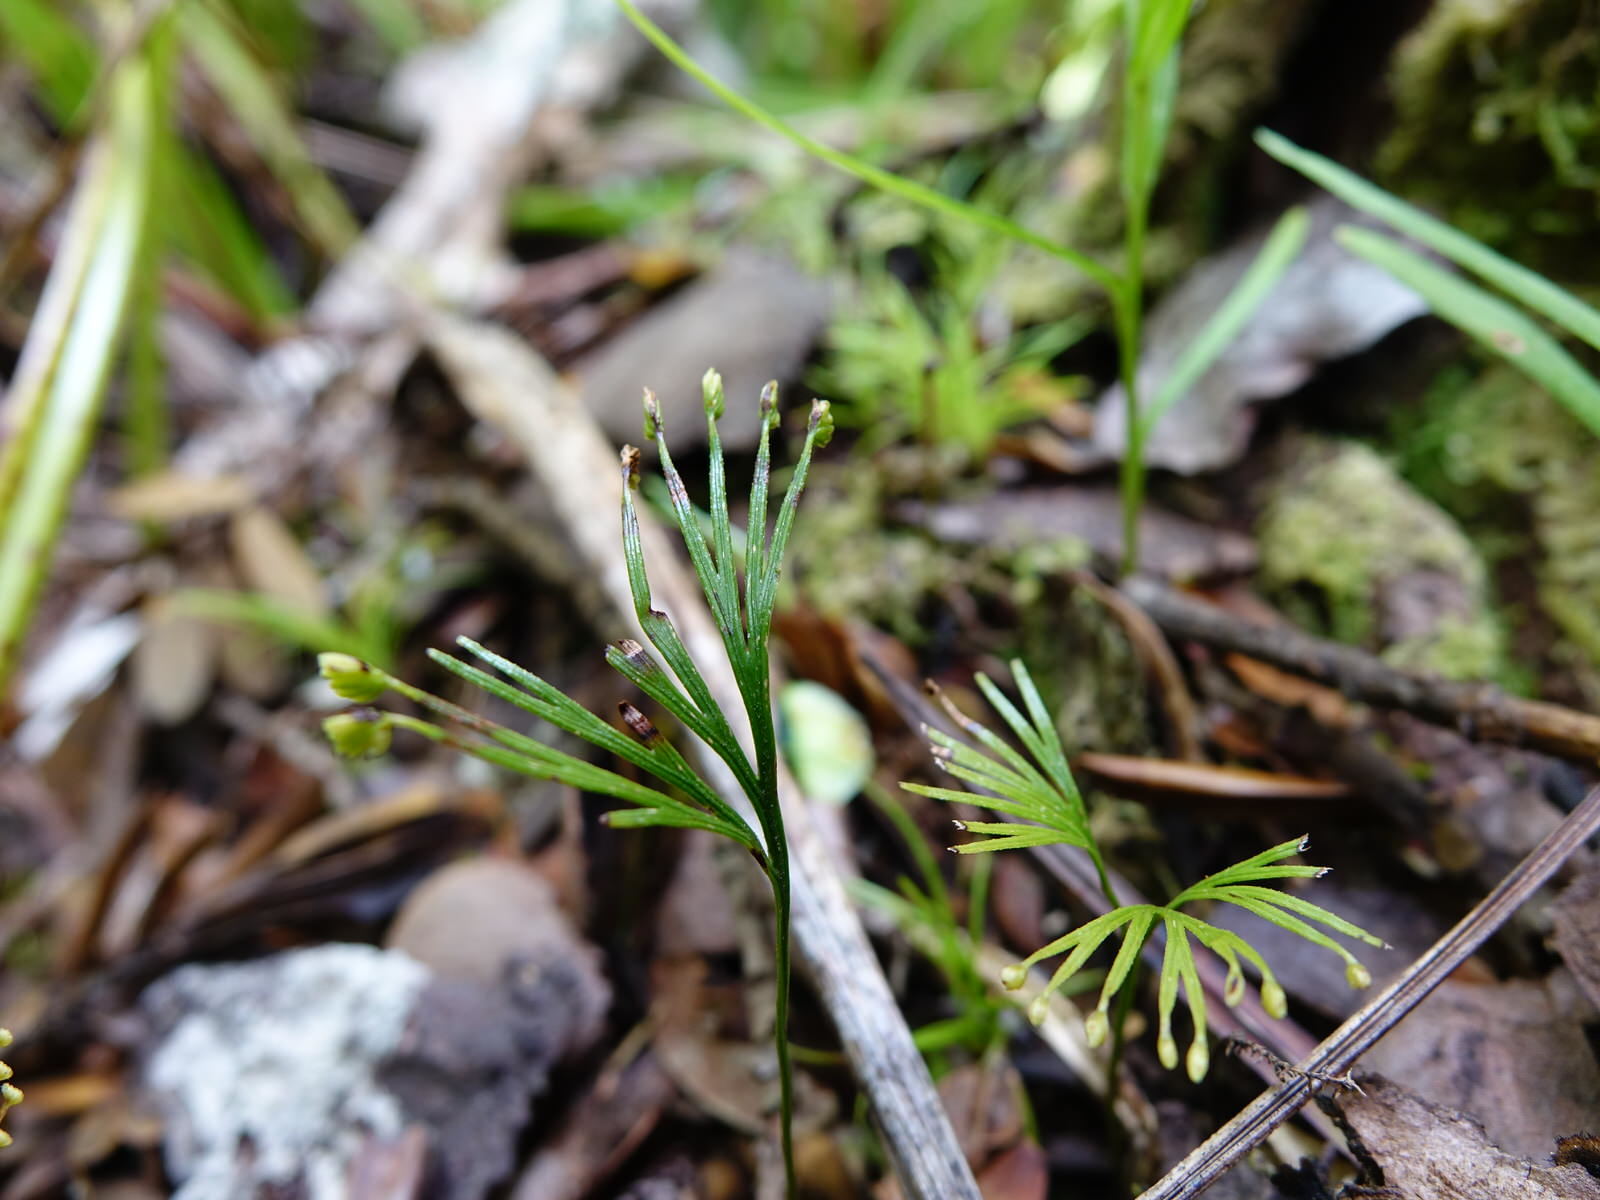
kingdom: Plantae
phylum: Tracheophyta
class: Polypodiopsida
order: Schizaeales
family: Schizaeaceae
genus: Schizaea
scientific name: Schizaea dichotoma
